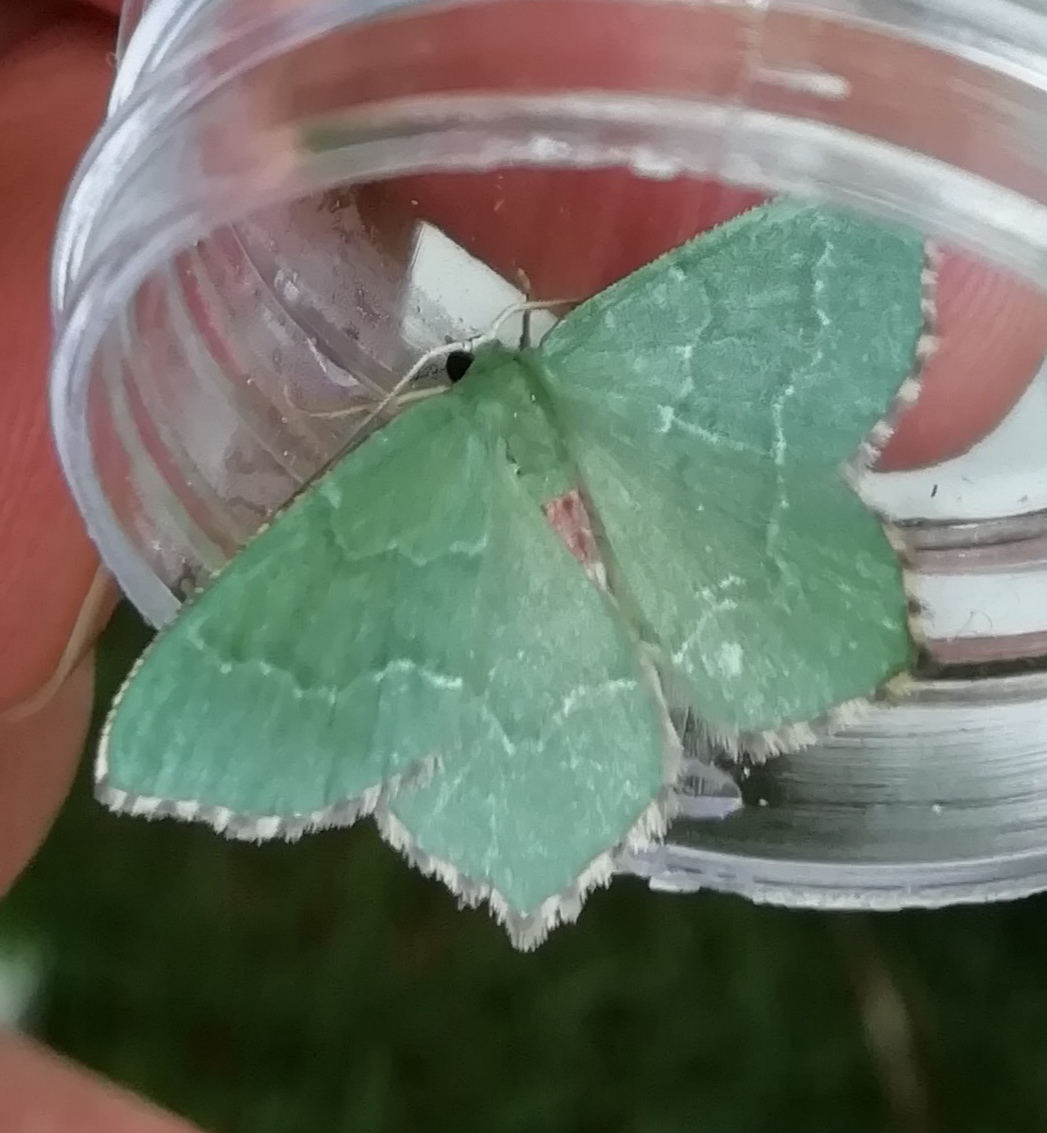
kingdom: Animalia
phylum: Arthropoda
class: Insecta
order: Lepidoptera
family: Geometridae
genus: Hemithea
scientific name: Hemithea aestivaria
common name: Common emerald
